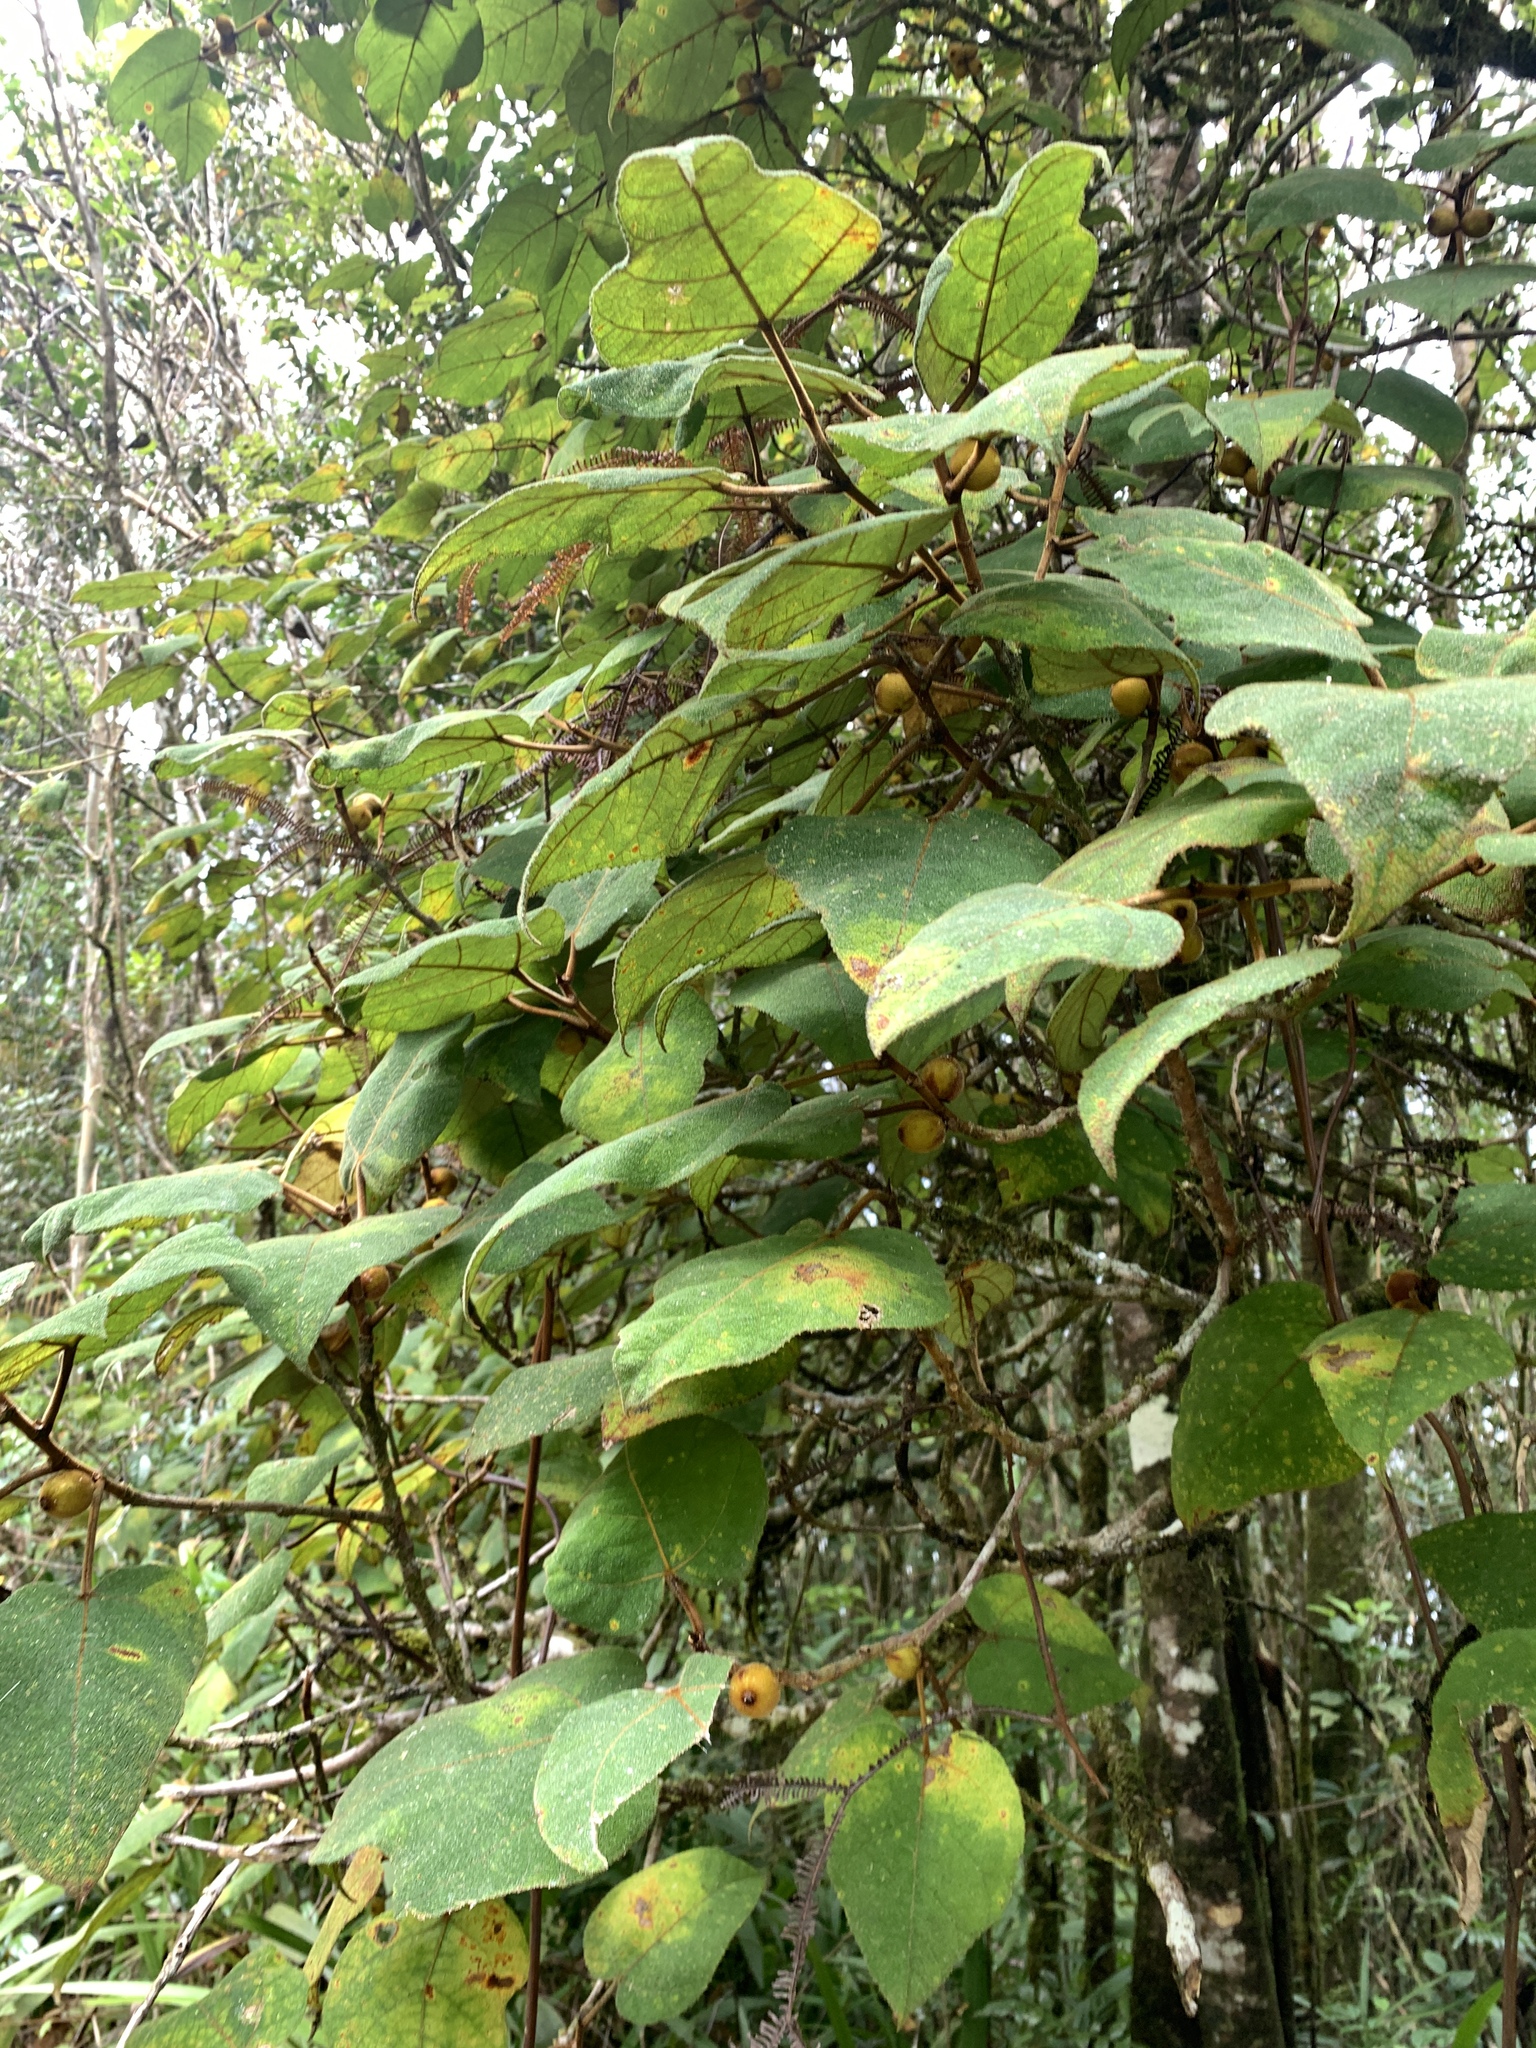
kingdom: Plantae
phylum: Tracheophyta
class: Magnoliopsida
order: Rosales
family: Moraceae
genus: Ficus
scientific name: Ficus eumorpha
